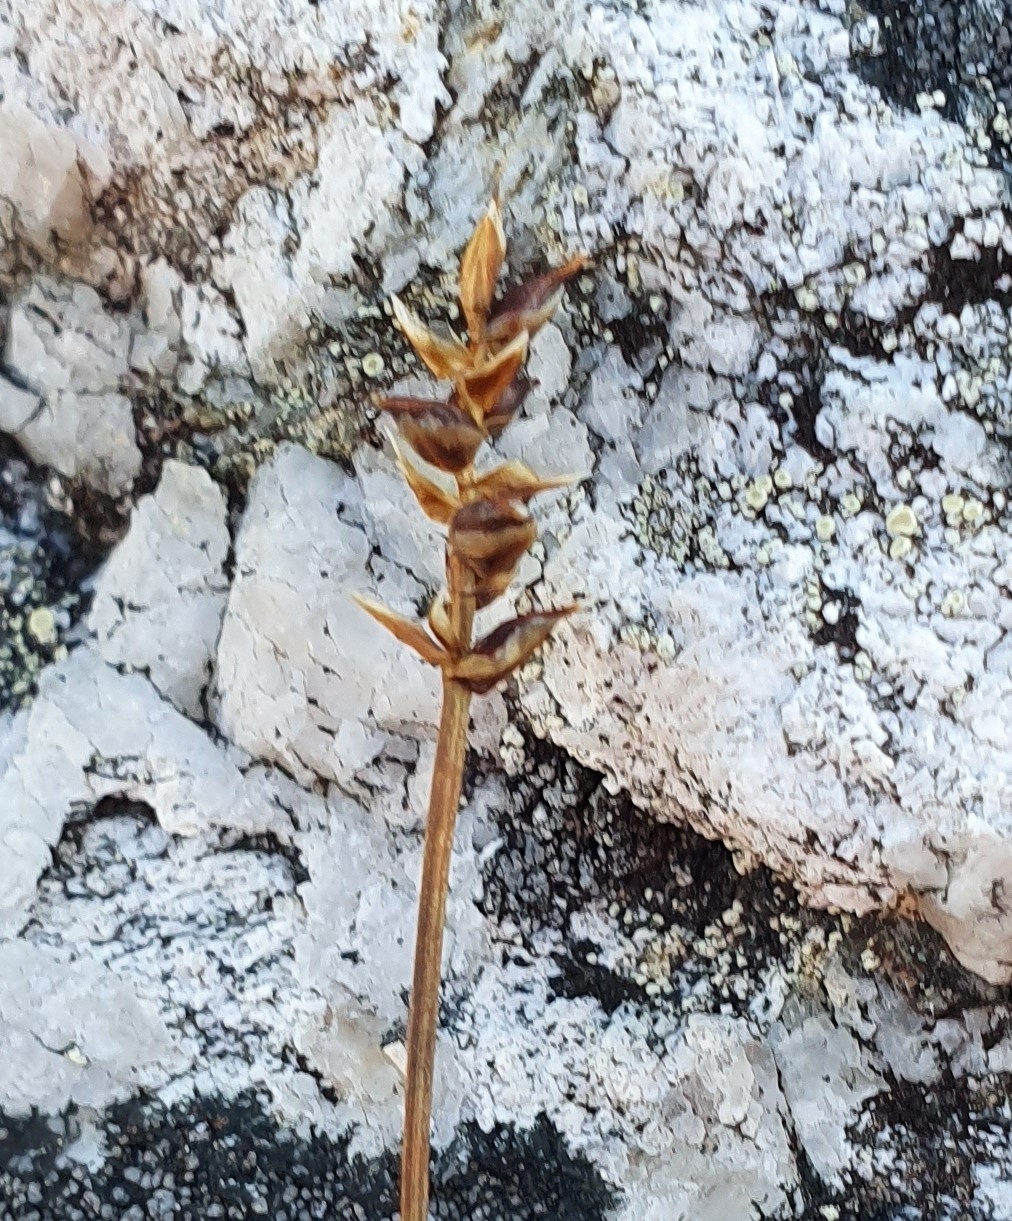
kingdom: Plantae
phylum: Tracheophyta
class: Liliopsida
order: Poales
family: Cyperaceae
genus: Carex
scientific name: Carex parallela
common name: Parallel sedge
